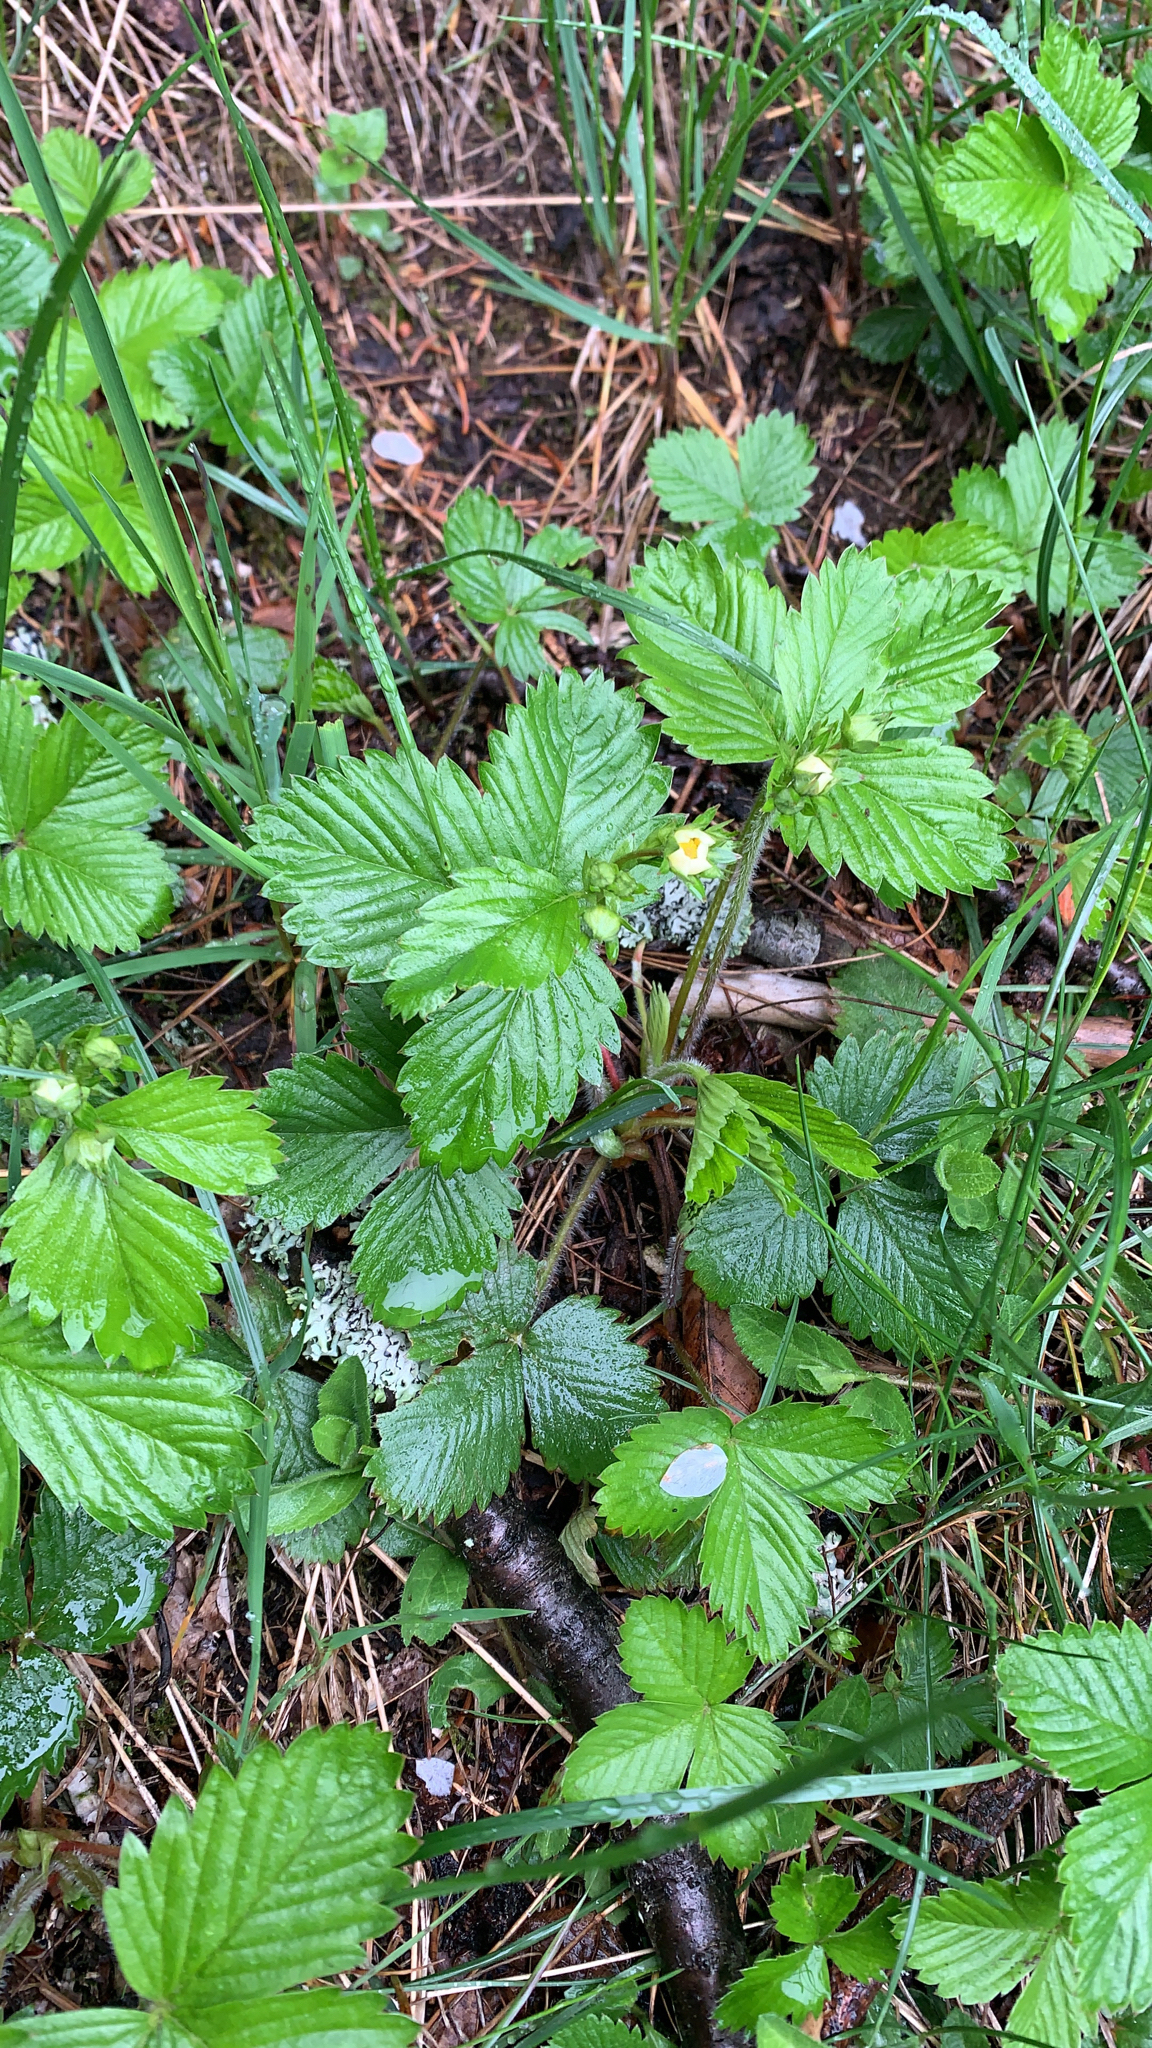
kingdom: Plantae
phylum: Tracheophyta
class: Magnoliopsida
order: Rosales
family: Rosaceae
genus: Fragaria
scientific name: Fragaria vesca
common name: Wild strawberry
